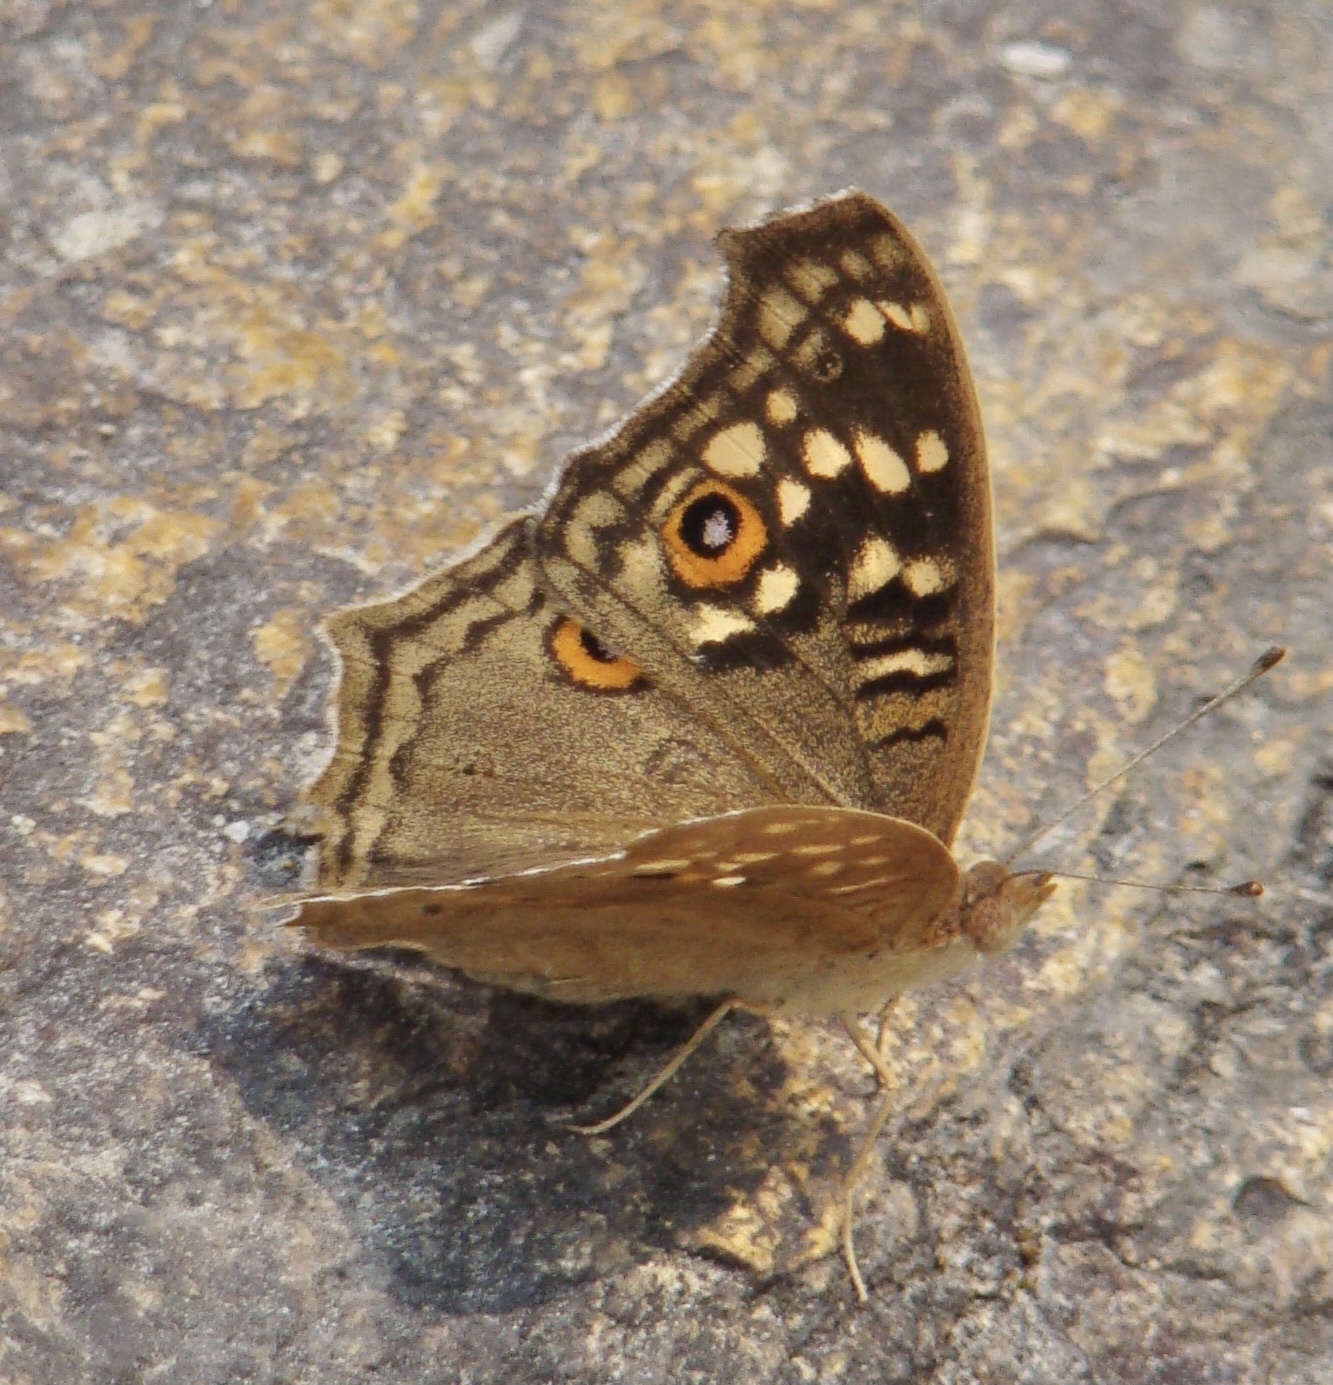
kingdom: Animalia
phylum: Arthropoda
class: Insecta
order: Lepidoptera
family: Nymphalidae
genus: Junonia
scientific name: Junonia lemonias
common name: Lemon pansy
